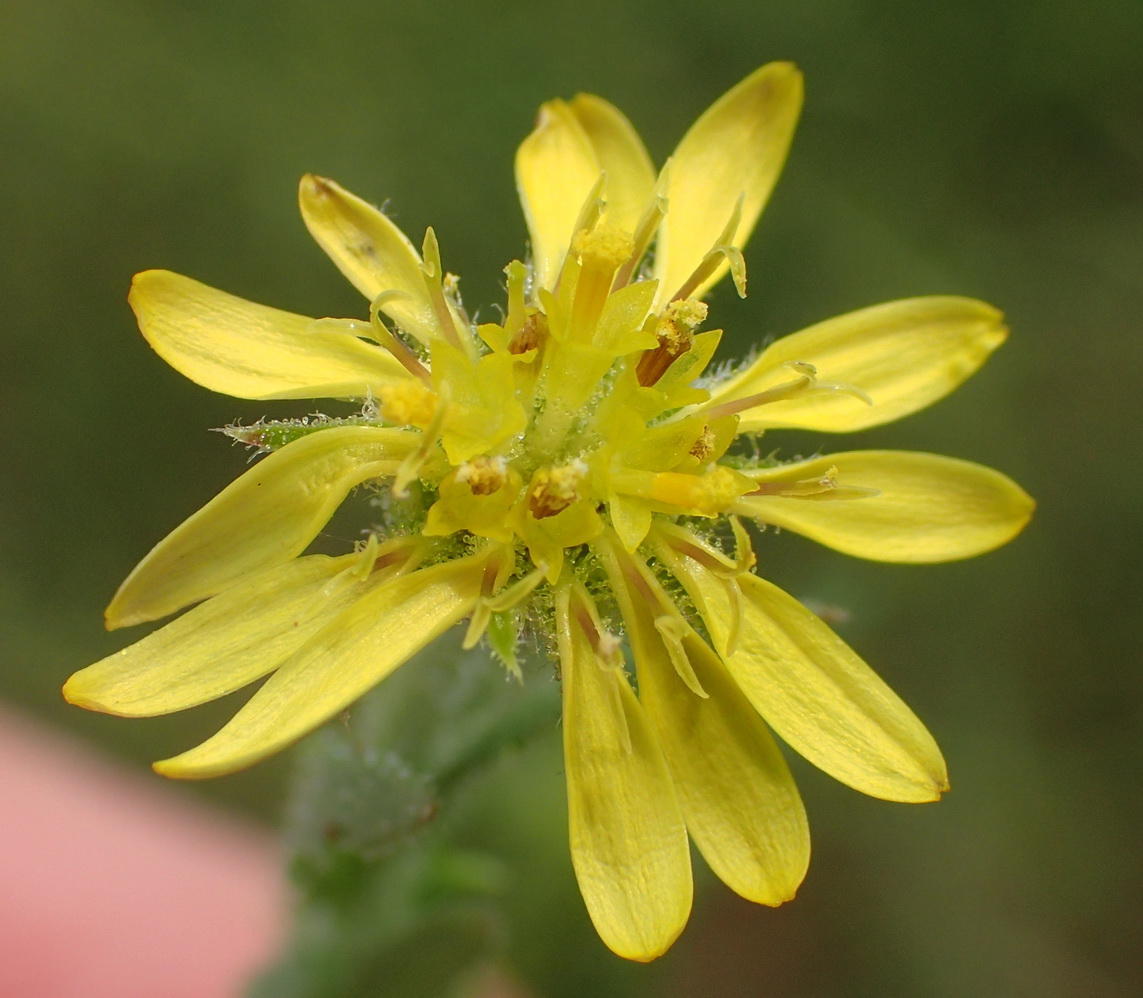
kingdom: Plantae
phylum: Tracheophyta
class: Magnoliopsida
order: Asterales
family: Asteraceae
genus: Osteospermum
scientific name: Osteospermum muricatum
